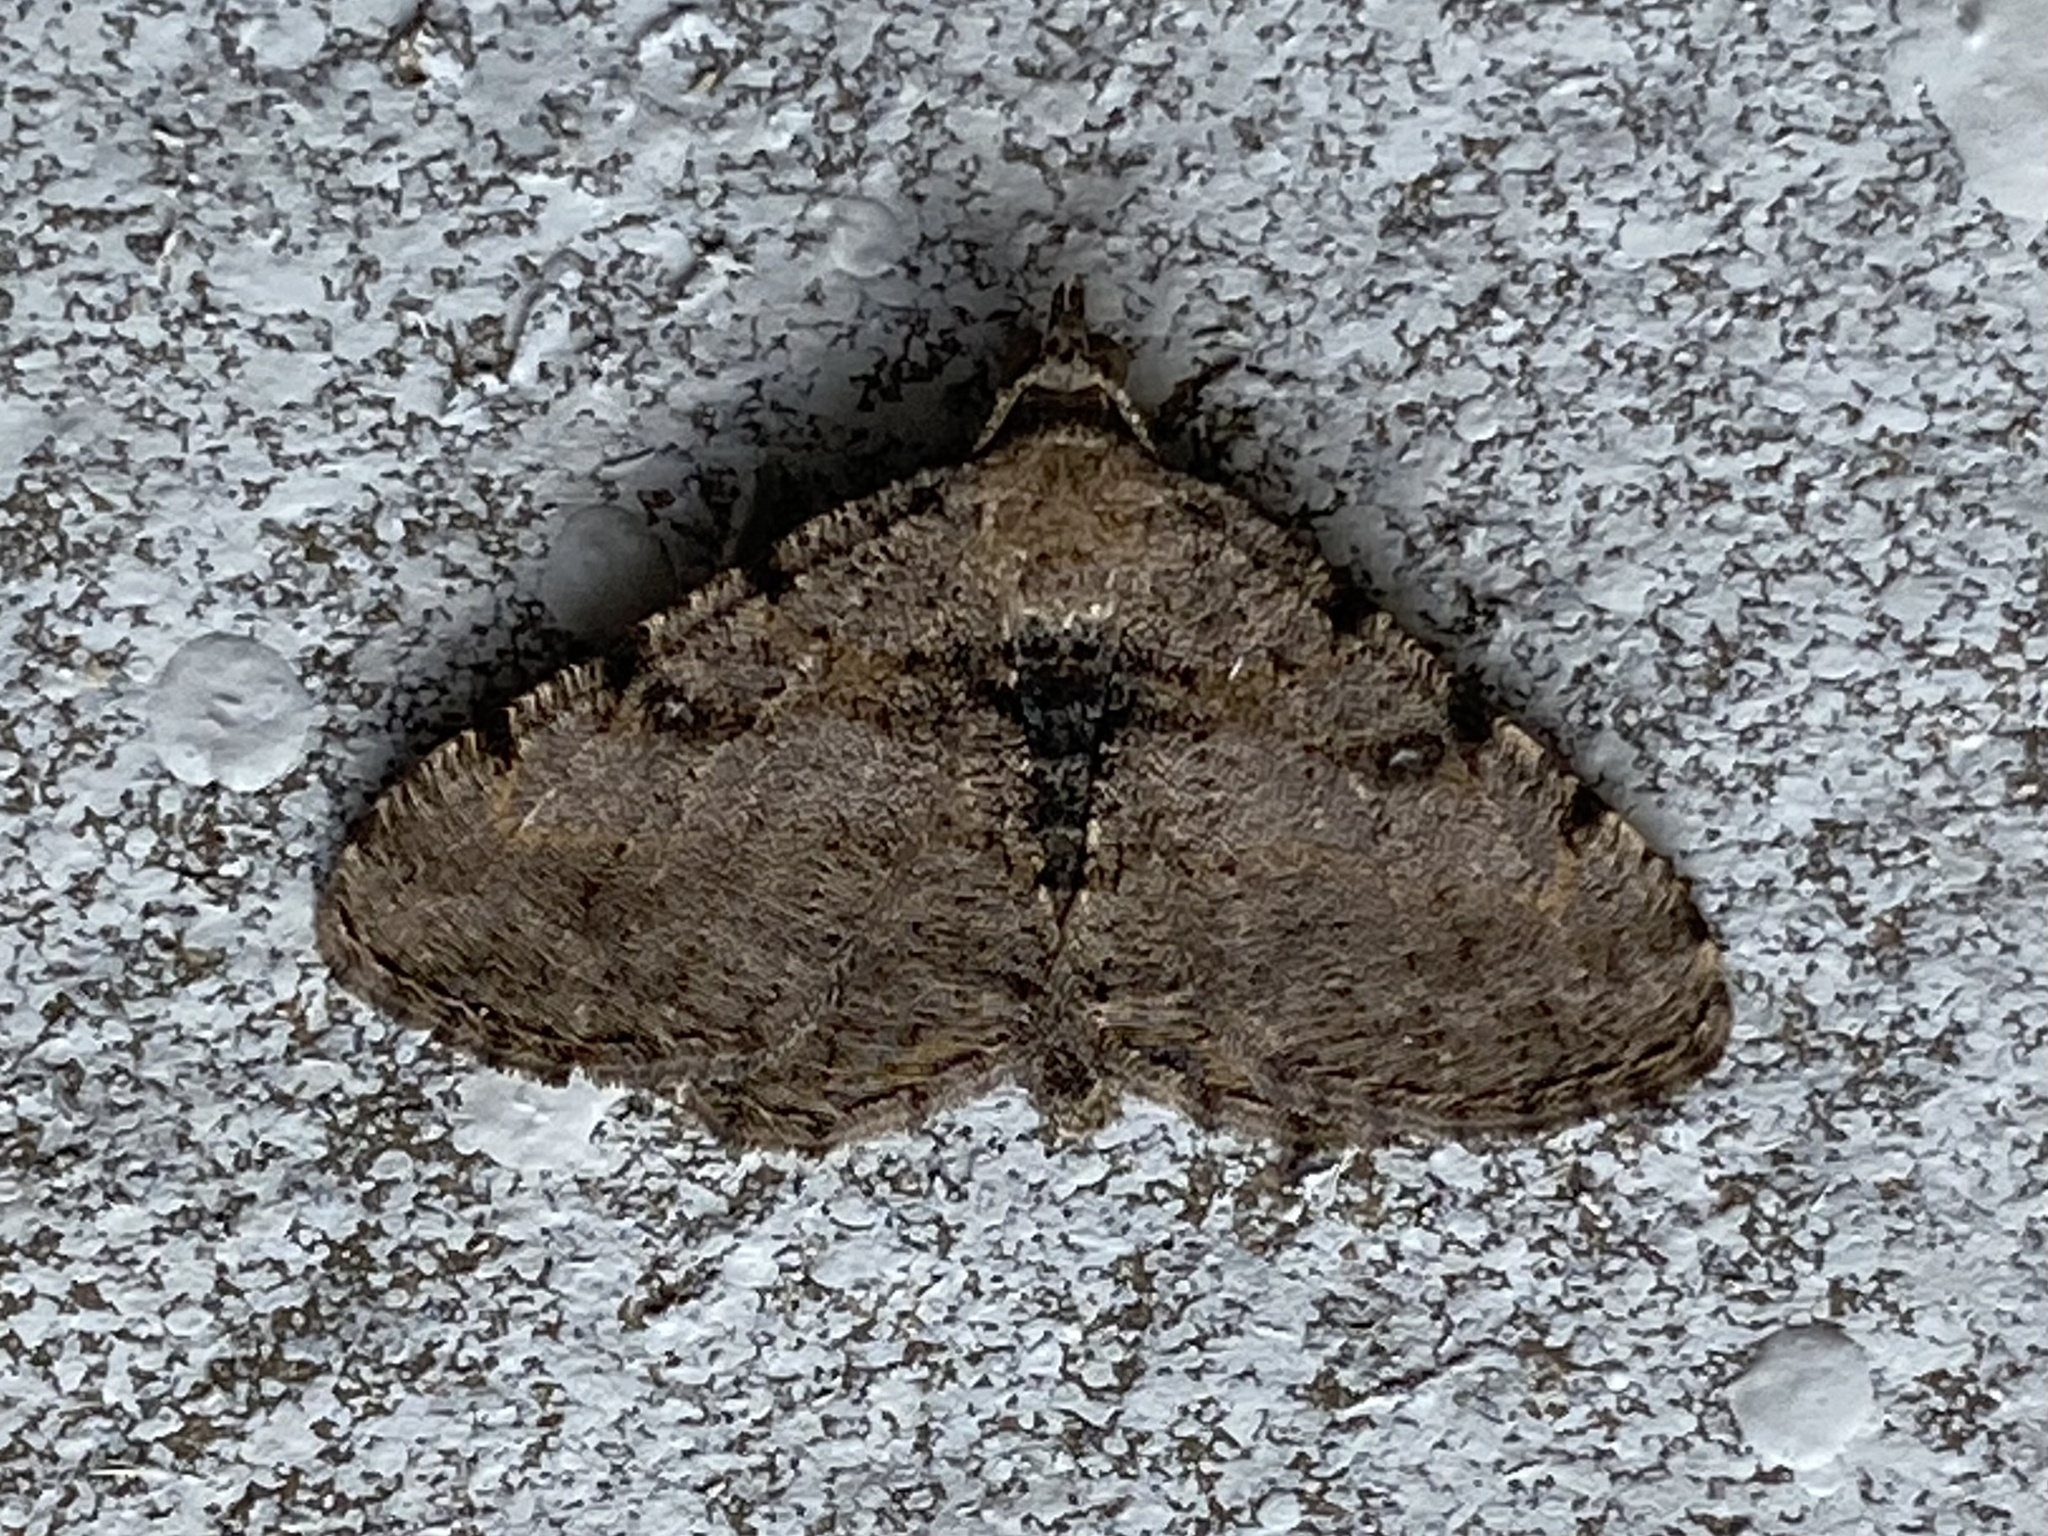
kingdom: Animalia
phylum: Arthropoda
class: Insecta
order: Lepidoptera
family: Geometridae
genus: Digrammia
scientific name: Digrammia gnophosaria
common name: Hollow-spotted angle
